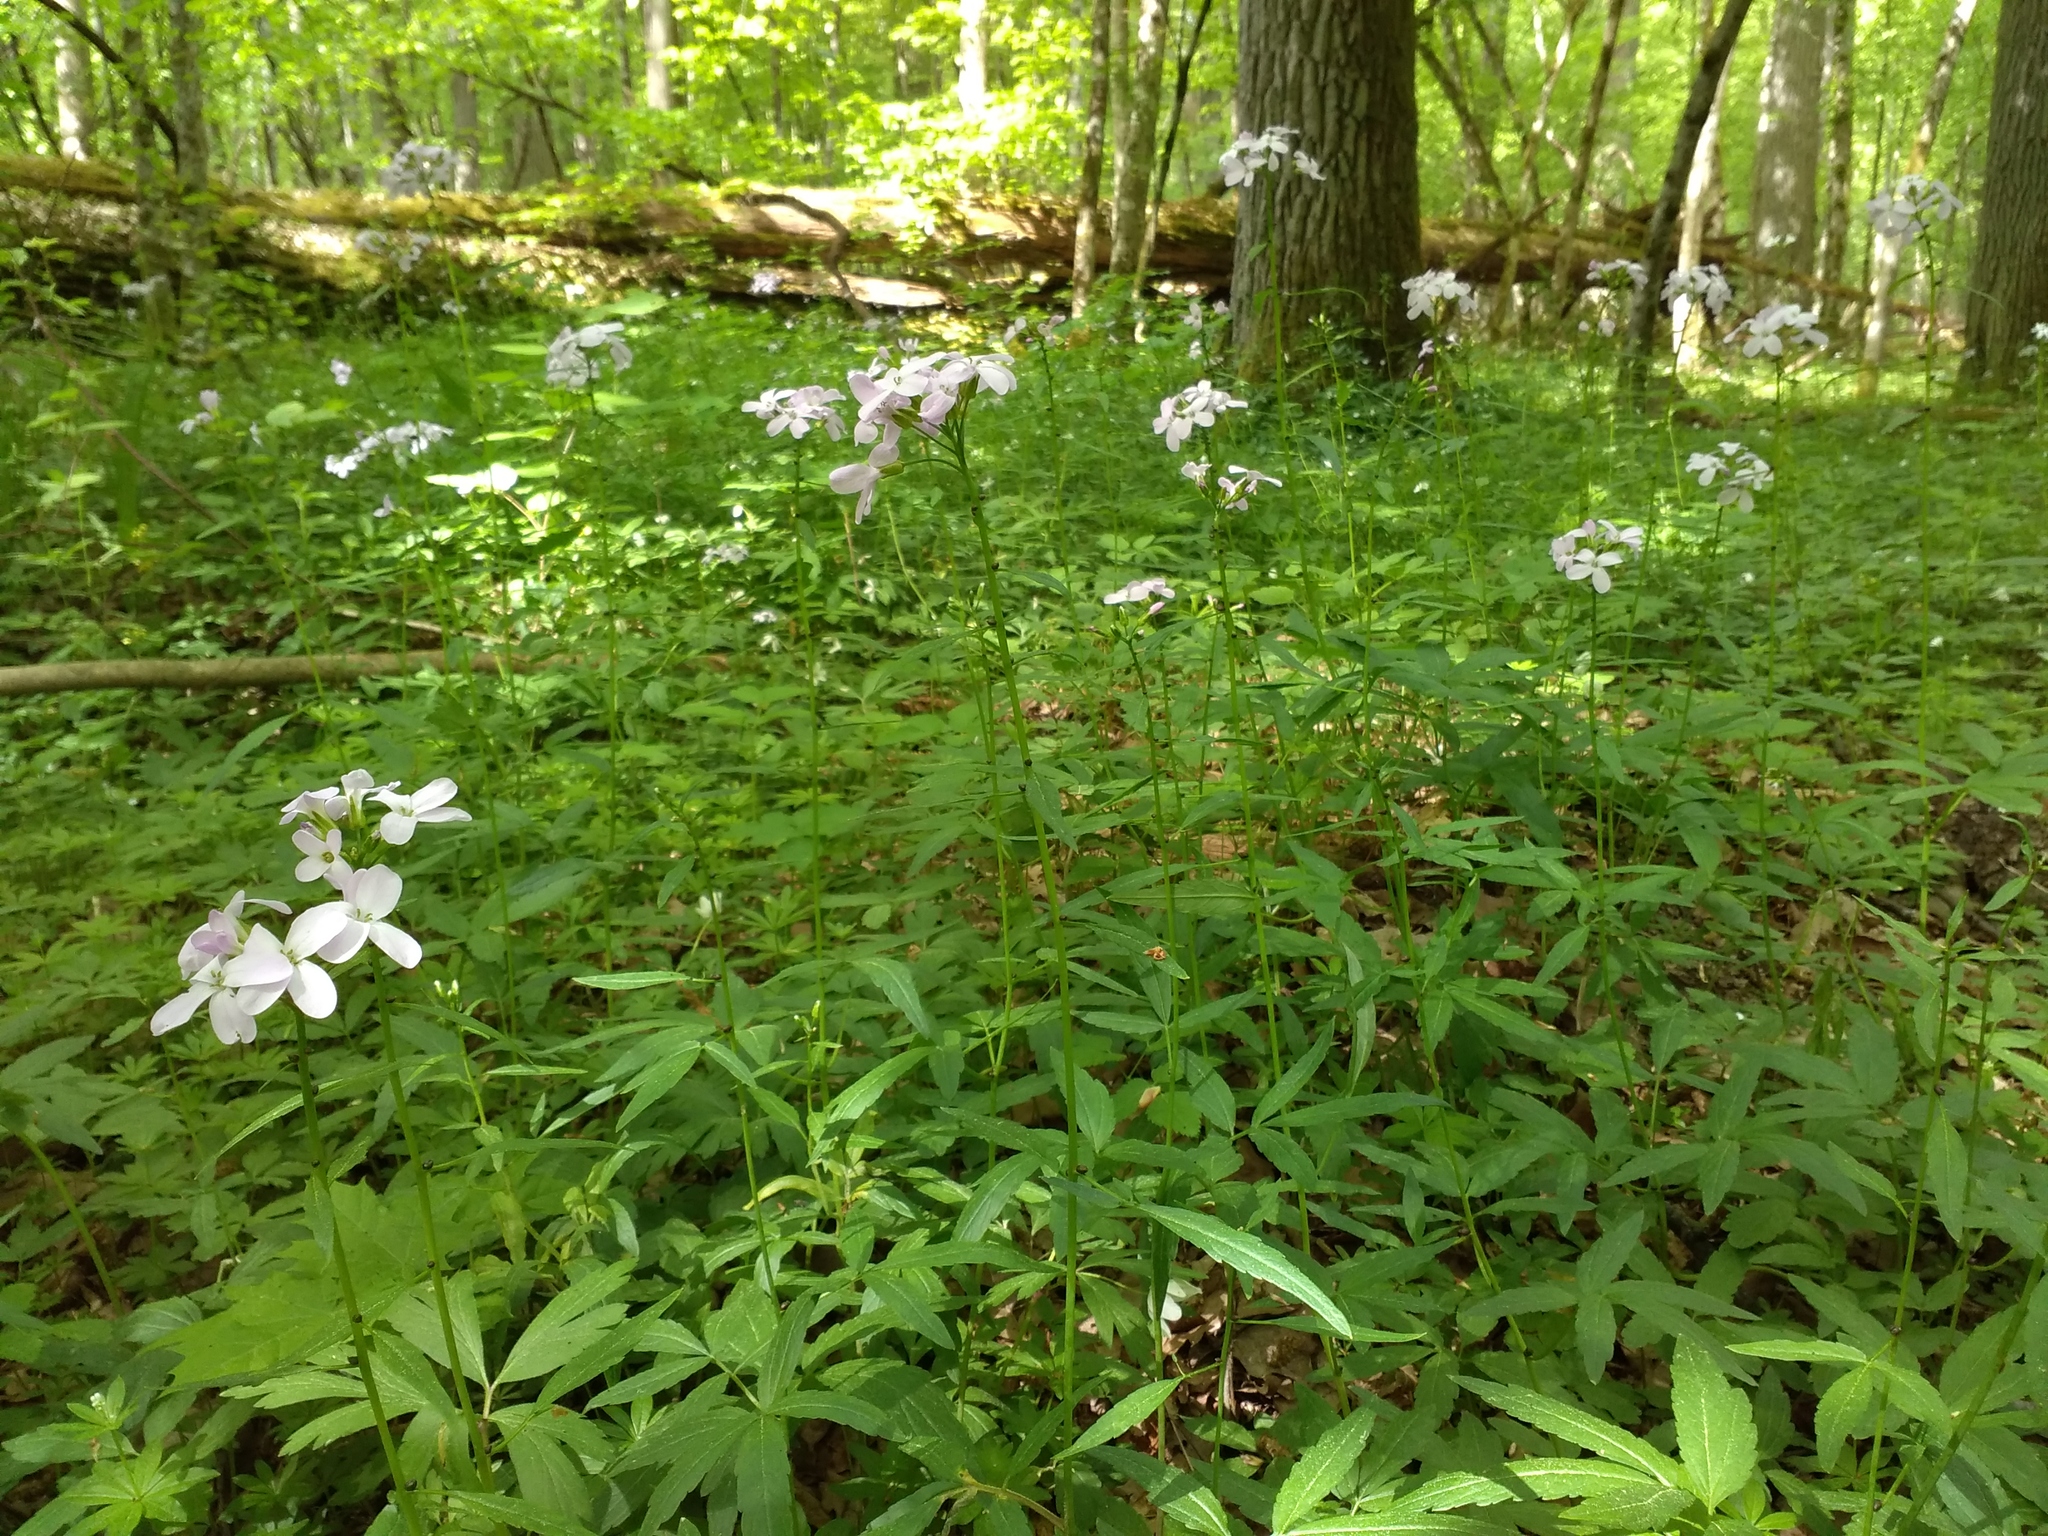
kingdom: Plantae
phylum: Tracheophyta
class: Magnoliopsida
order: Brassicales
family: Brassicaceae
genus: Cardamine
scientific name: Cardamine bulbifera
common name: Coralroot bittercress
